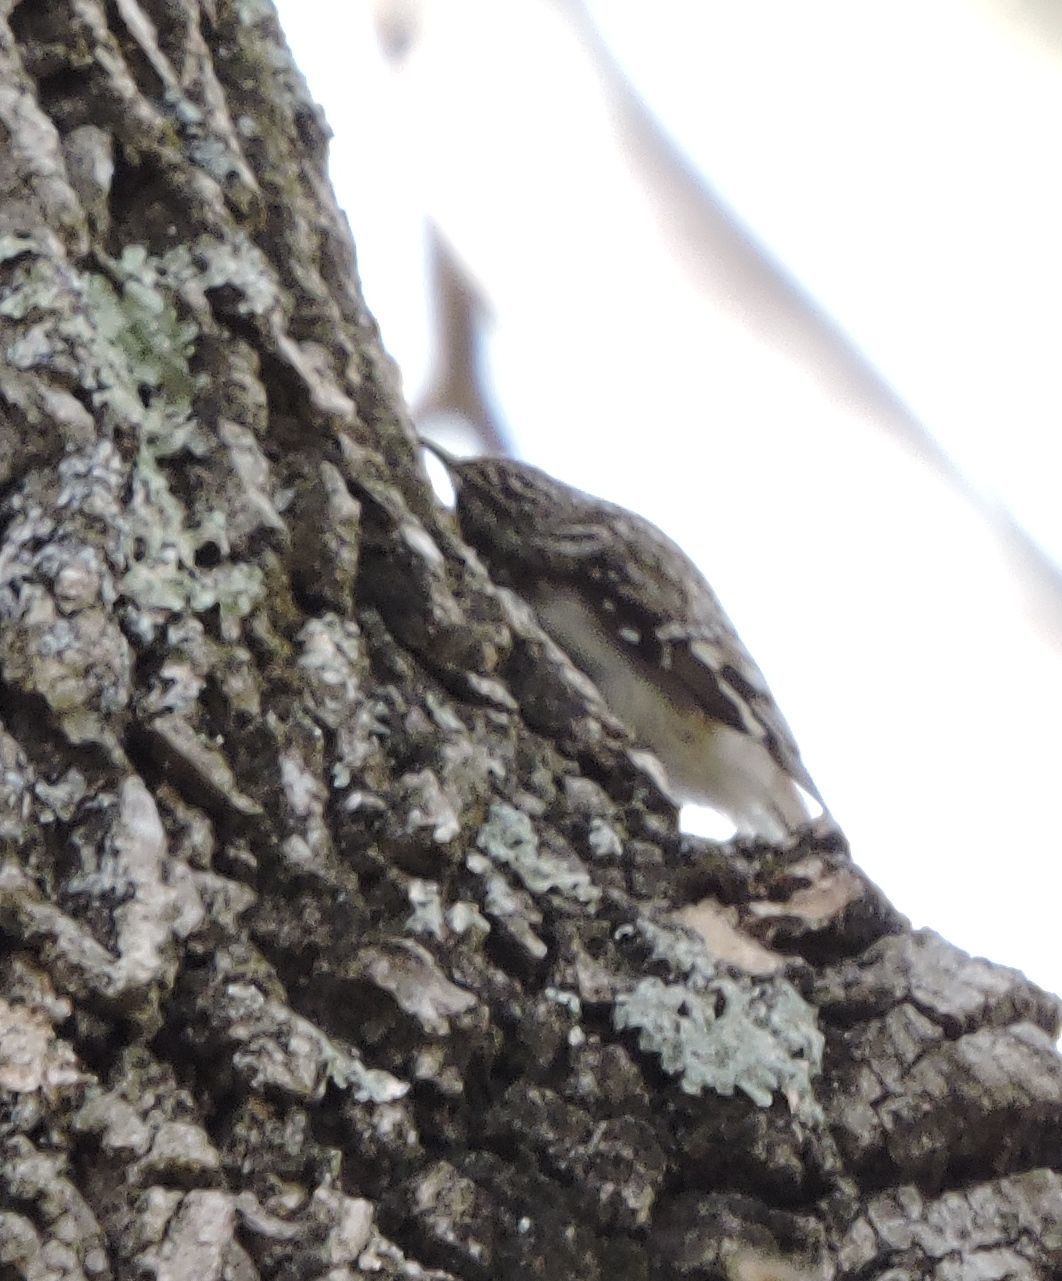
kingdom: Animalia
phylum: Chordata
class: Aves
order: Passeriformes
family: Certhiidae
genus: Certhia
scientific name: Certhia americana
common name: Brown creeper
